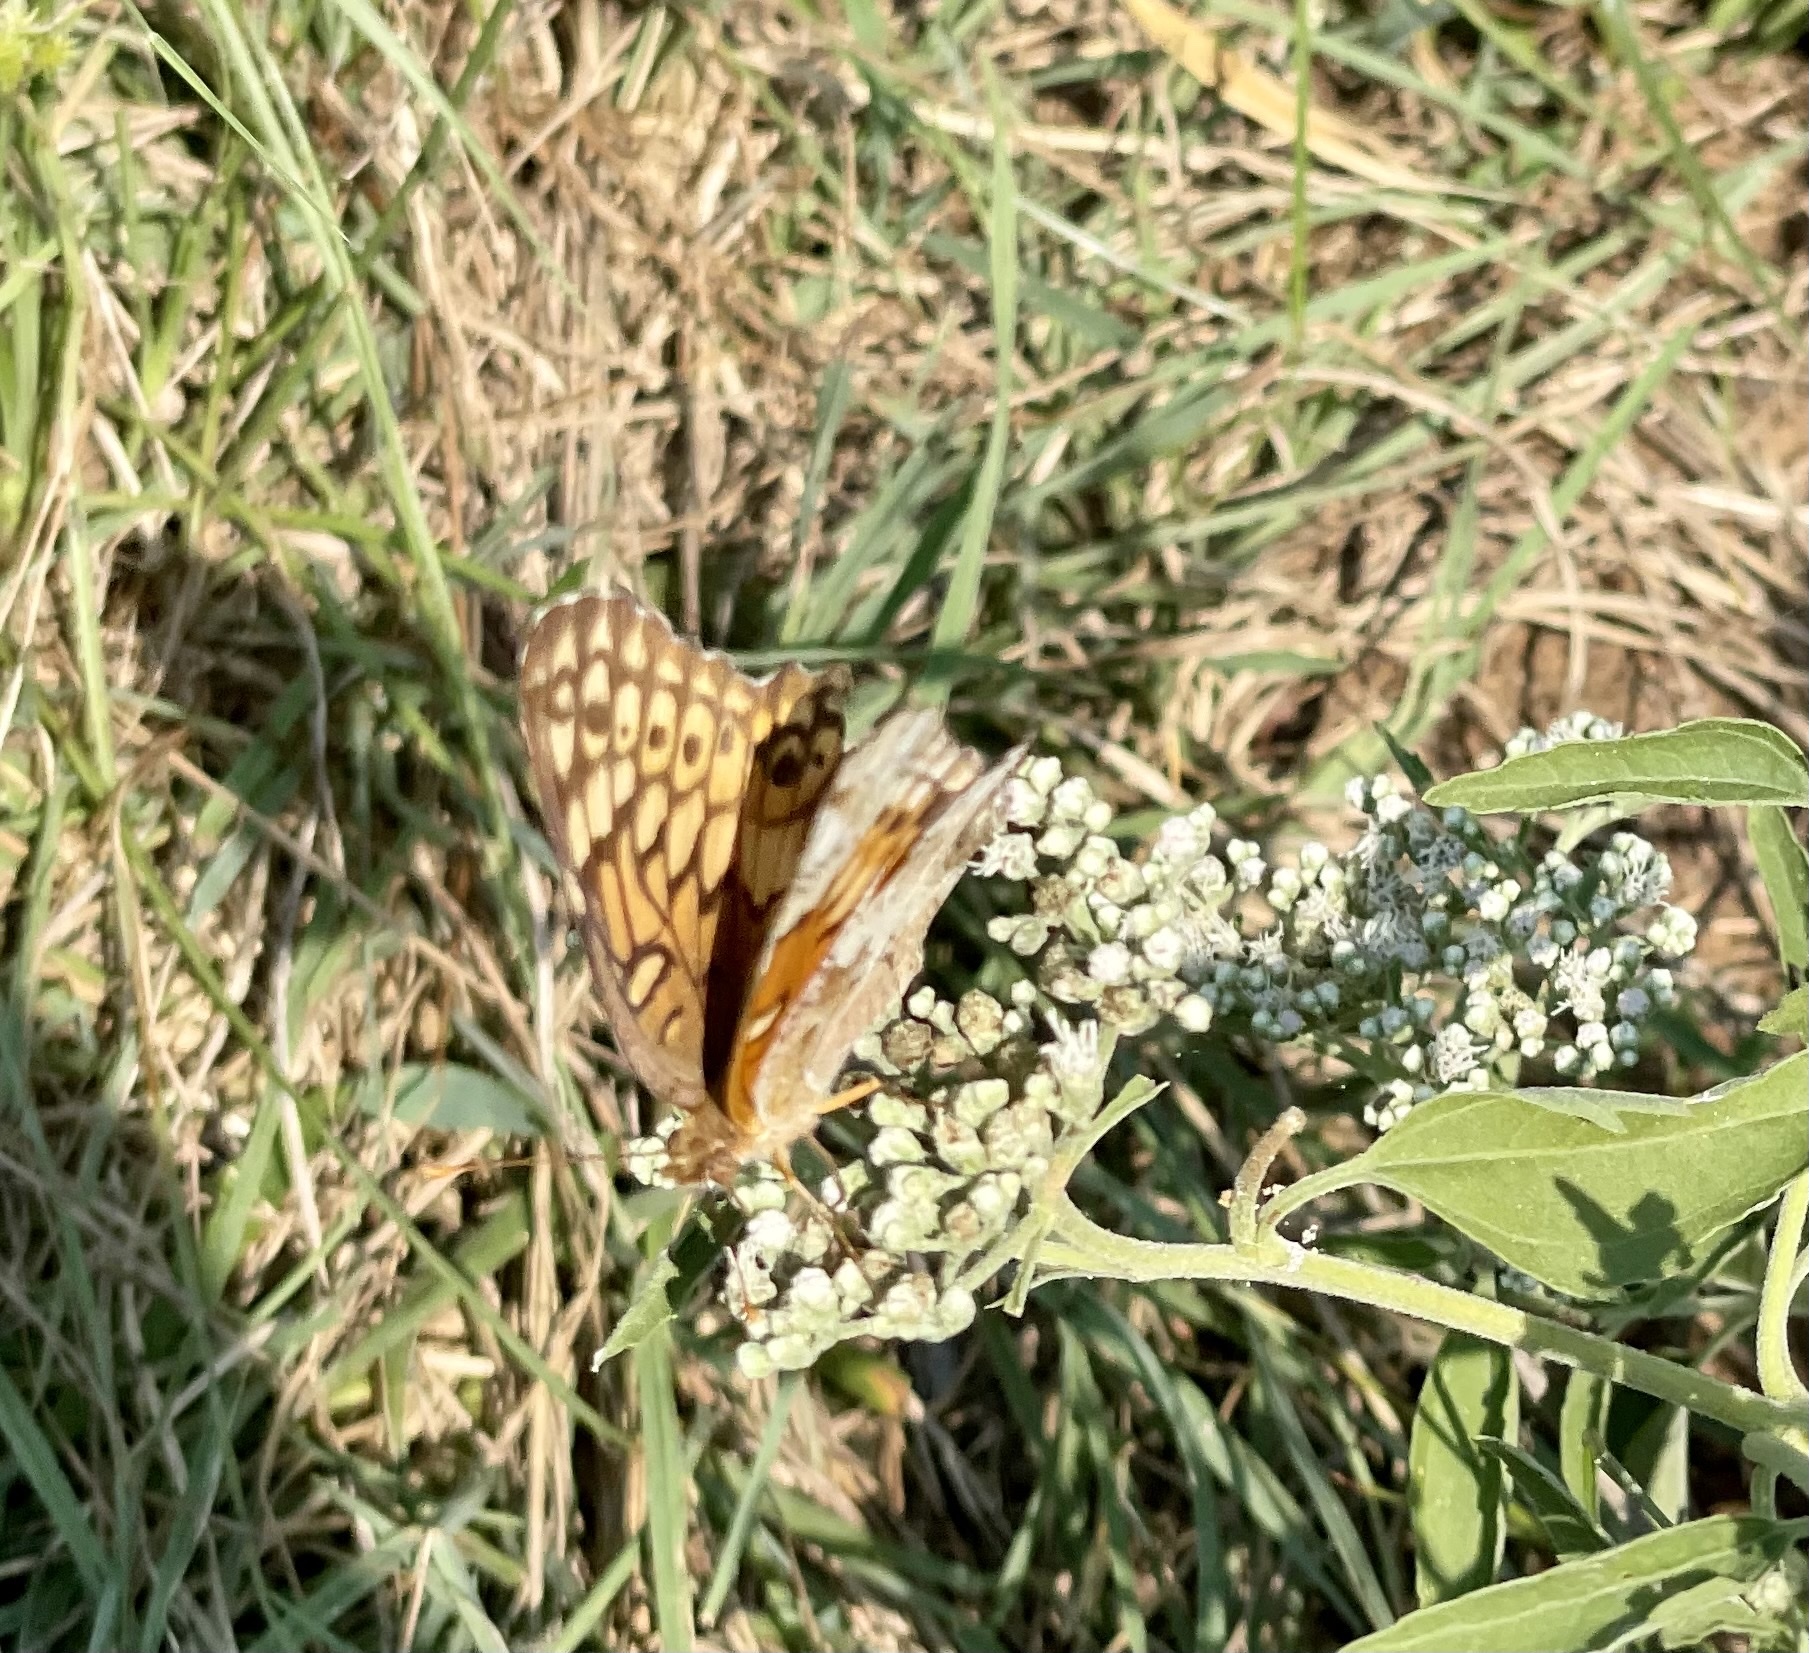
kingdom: Animalia
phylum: Arthropoda
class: Insecta
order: Lepidoptera
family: Nymphalidae
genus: Euptoieta
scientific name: Euptoieta claudia
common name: Variegated fritillary
